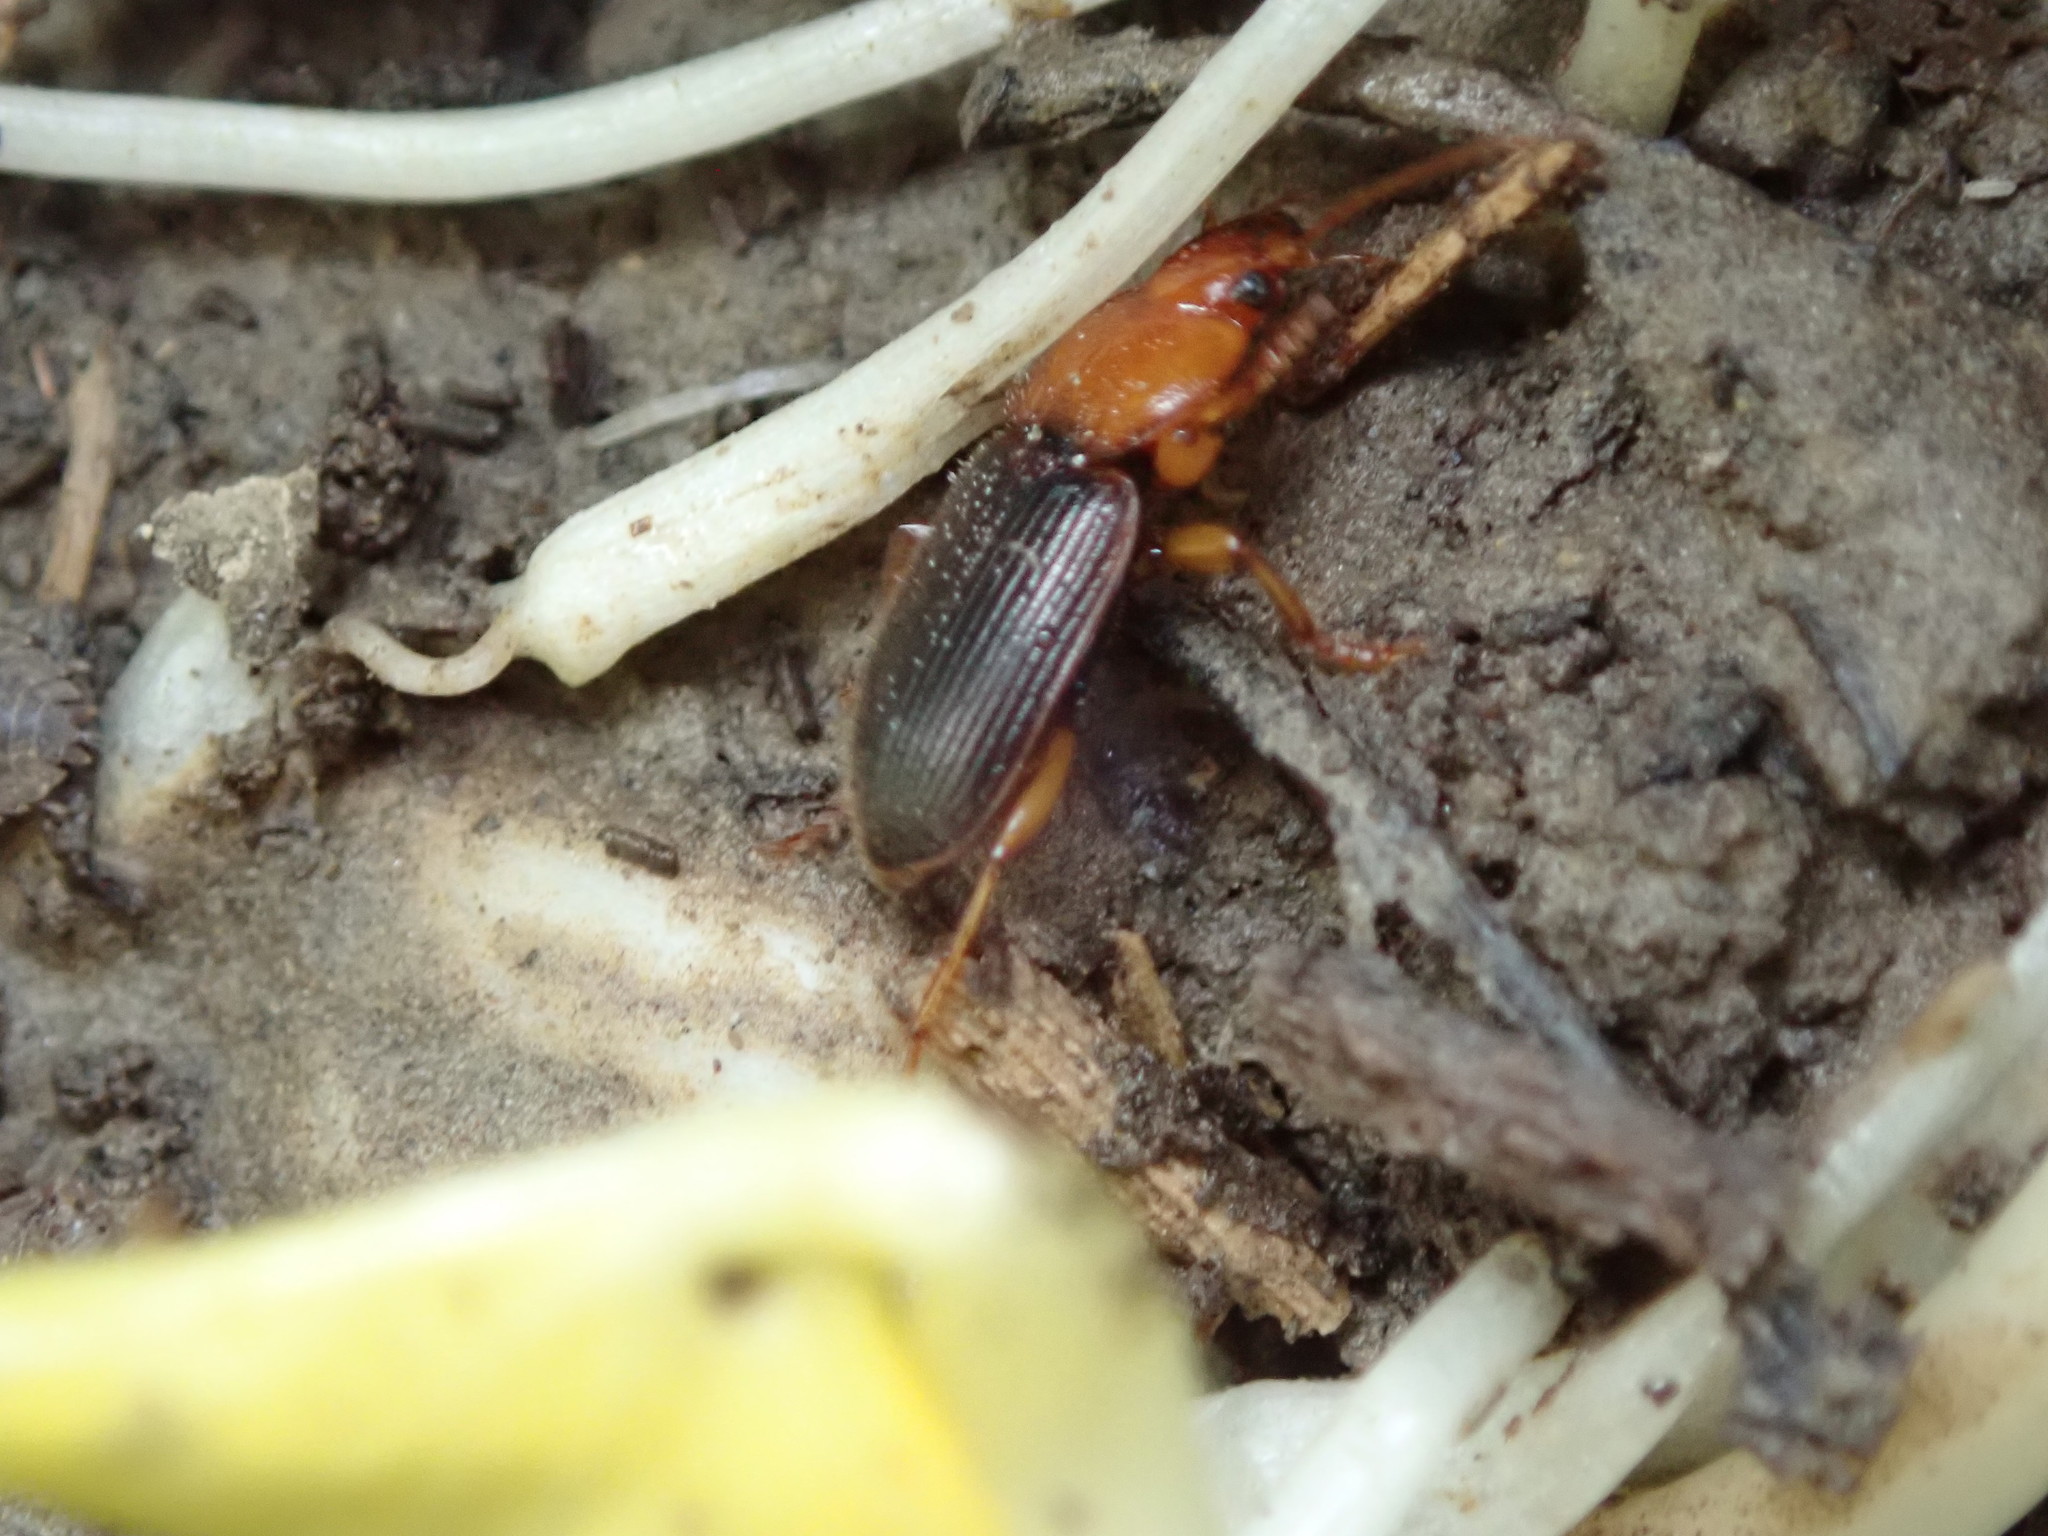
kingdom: Animalia
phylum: Arthropoda
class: Insecta
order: Coleoptera
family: Carabidae
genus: Amphasia
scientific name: Amphasia interstitialis
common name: Red-headed ground beetle
